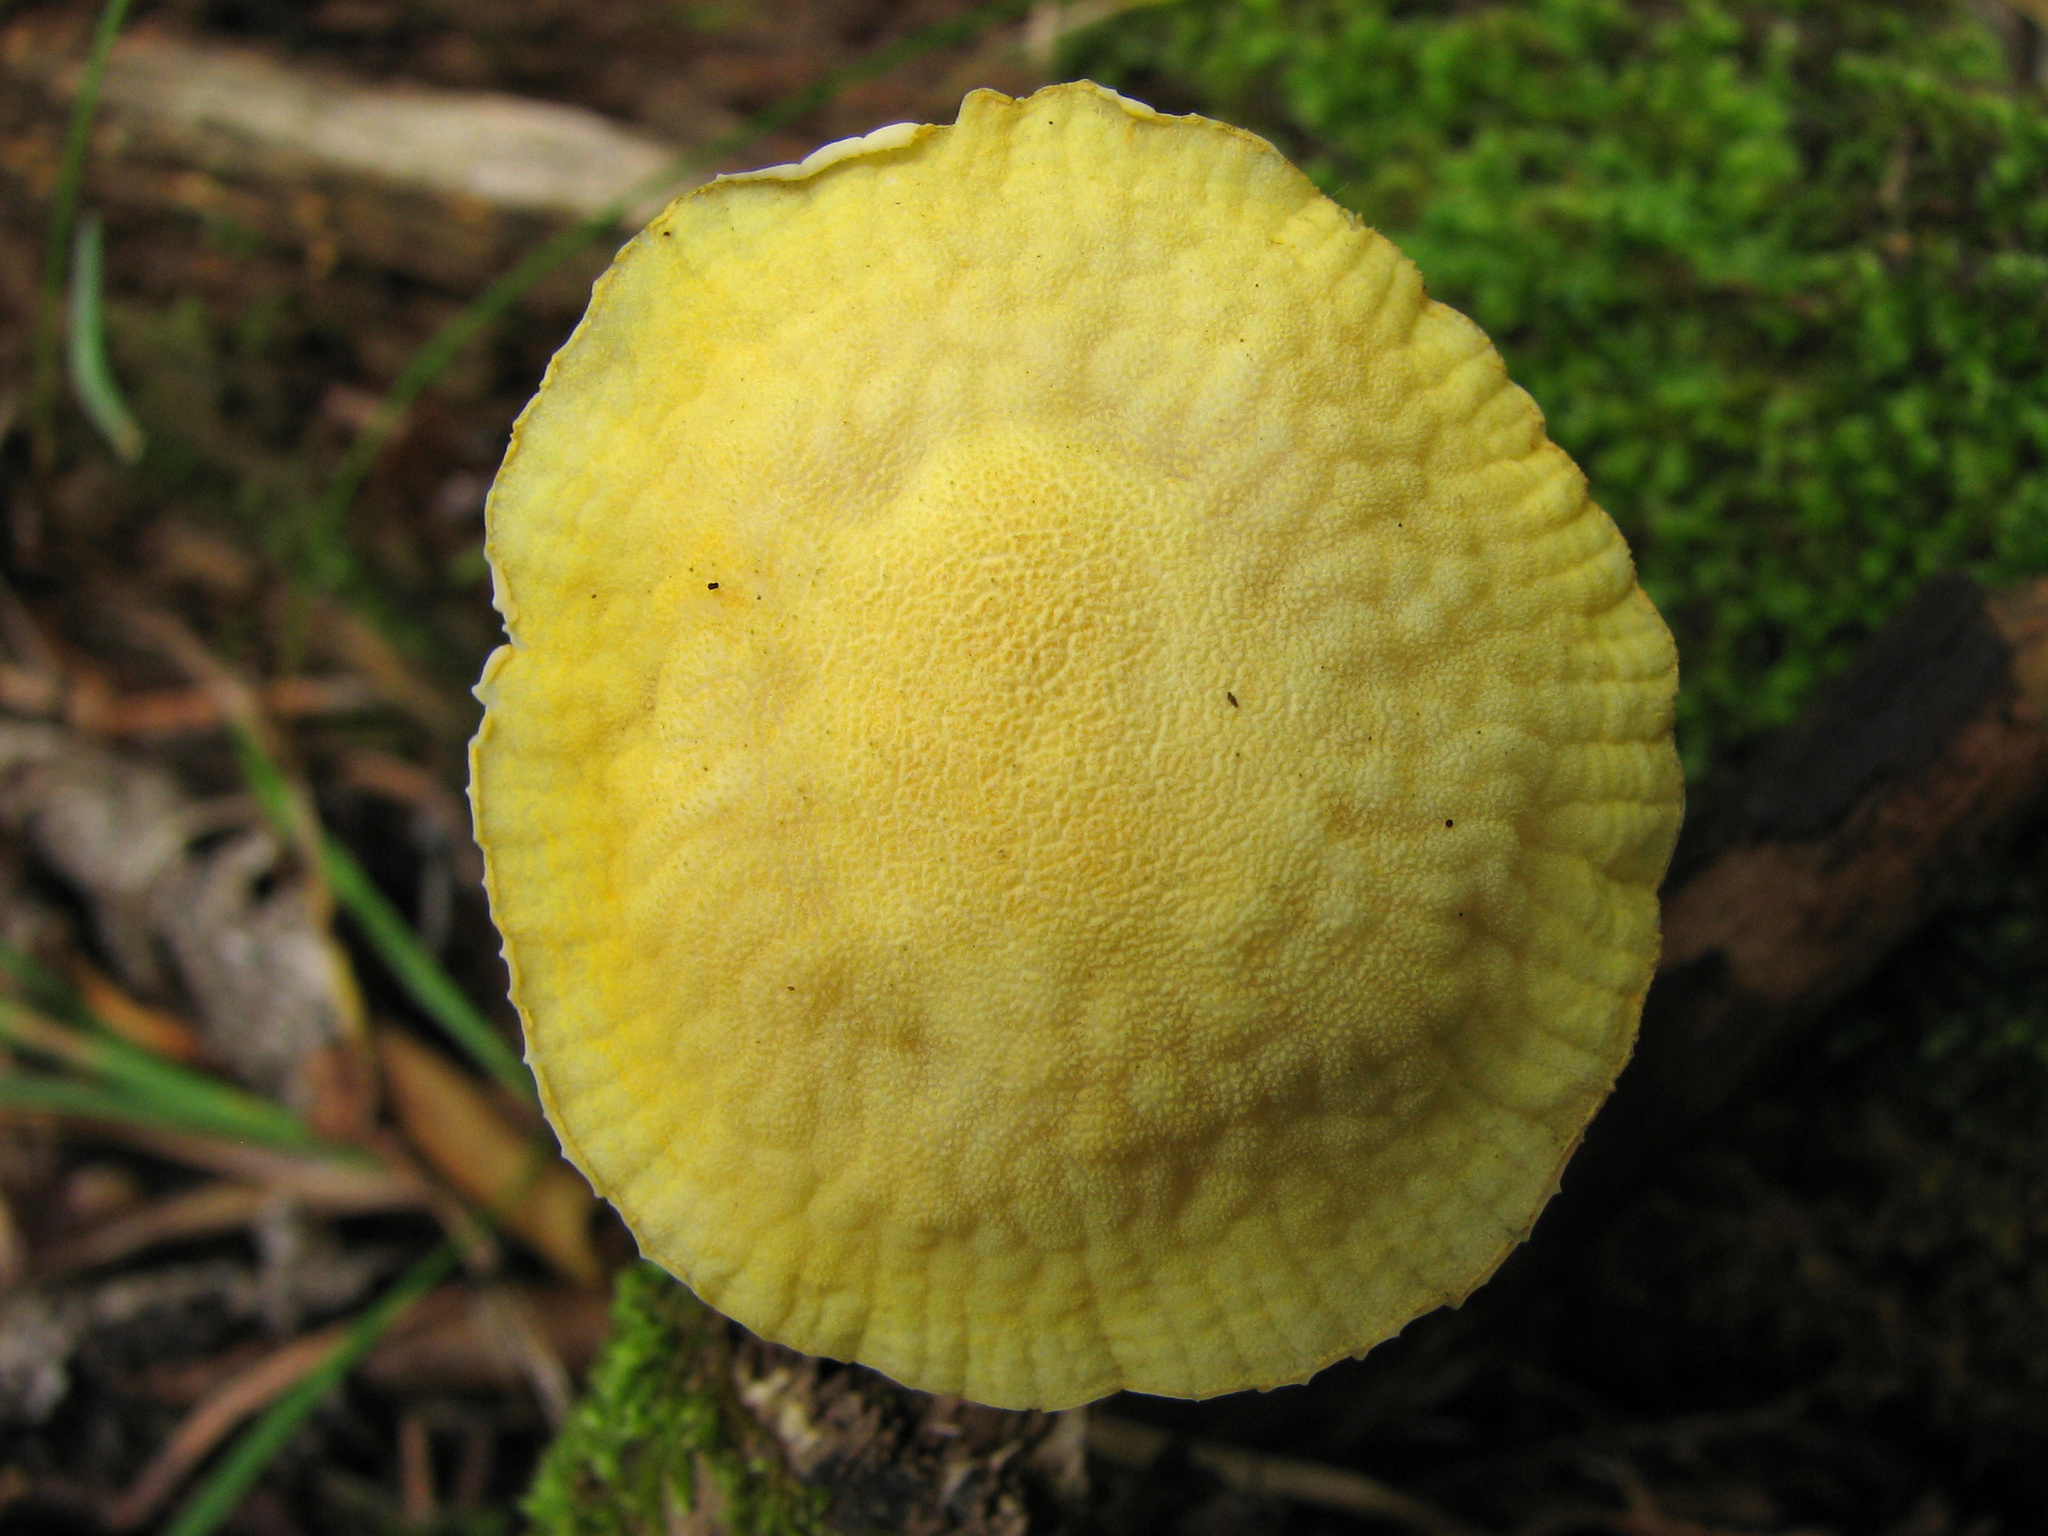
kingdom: Fungi
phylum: Basidiomycota
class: Agaricomycetes
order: Agaricales
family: Physalacriaceae
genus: Cyptotrama
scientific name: Cyptotrama chrysopepla
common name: Golden coincap
